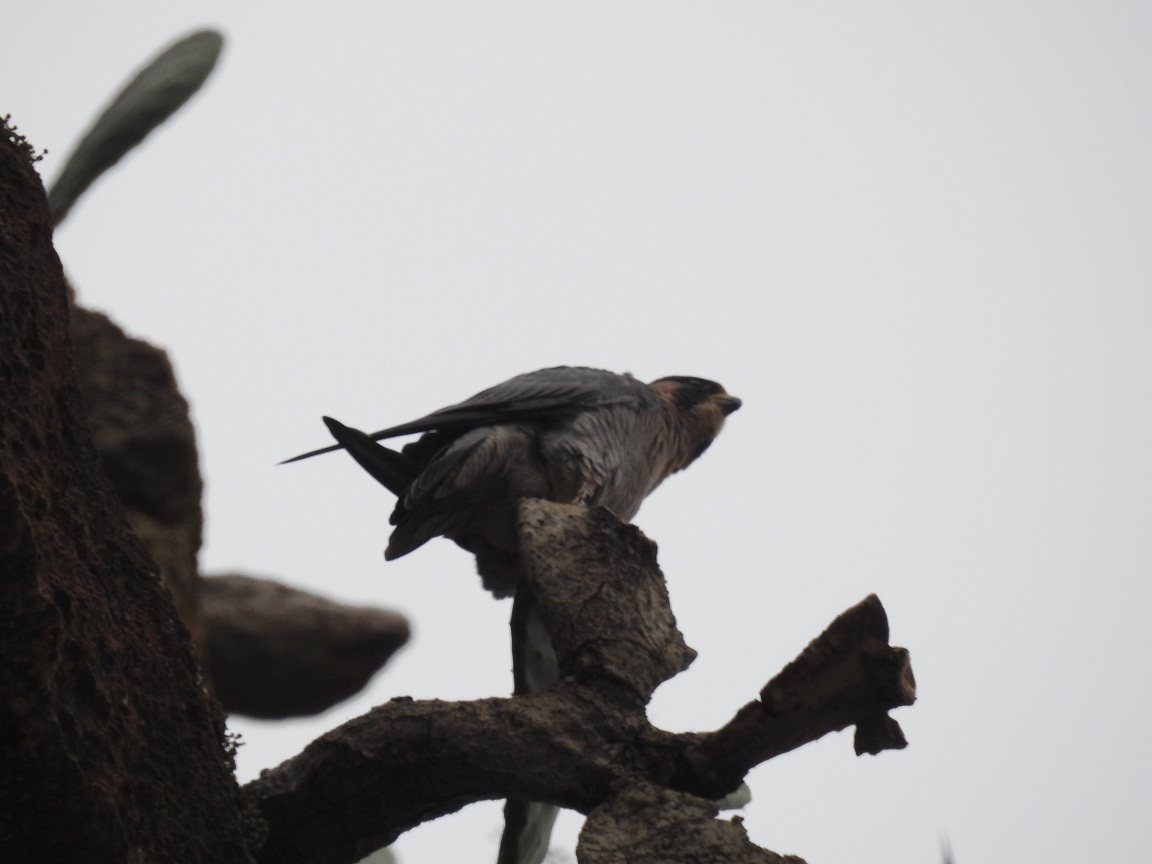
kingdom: Animalia
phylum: Chordata
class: Aves
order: Falconiformes
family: Falconidae
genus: Falco
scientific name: Falco peregrinus
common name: Peregrine falcon
